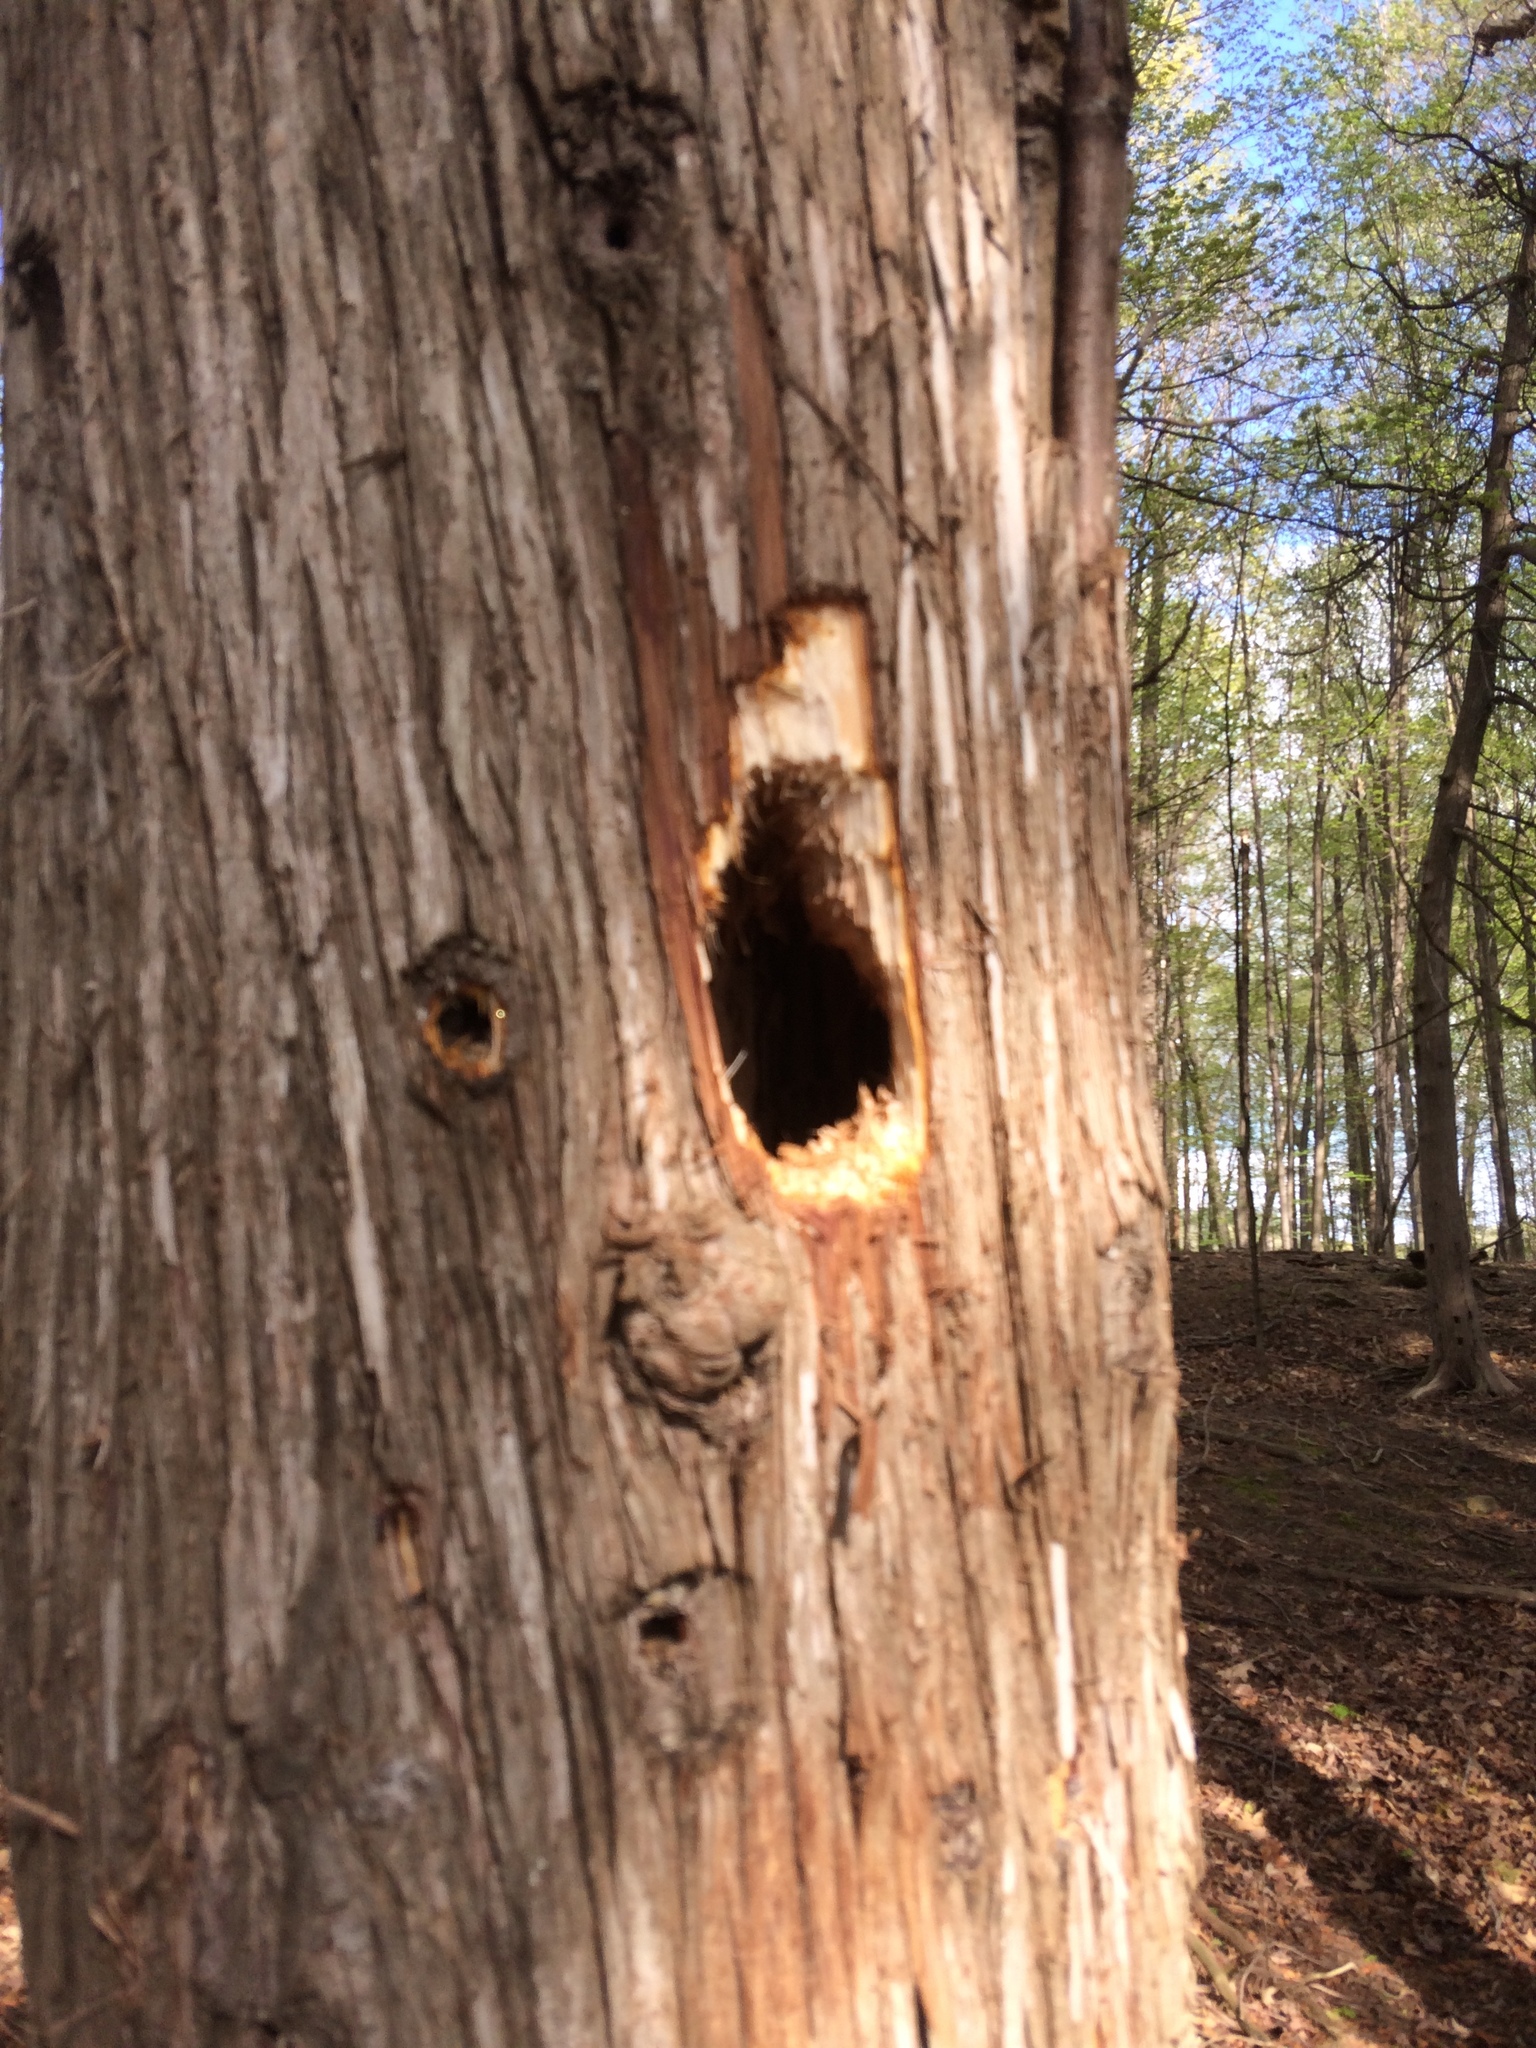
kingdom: Animalia
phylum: Chordata
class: Aves
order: Piciformes
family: Picidae
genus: Dryocopus
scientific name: Dryocopus pileatus
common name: Pileated woodpecker
